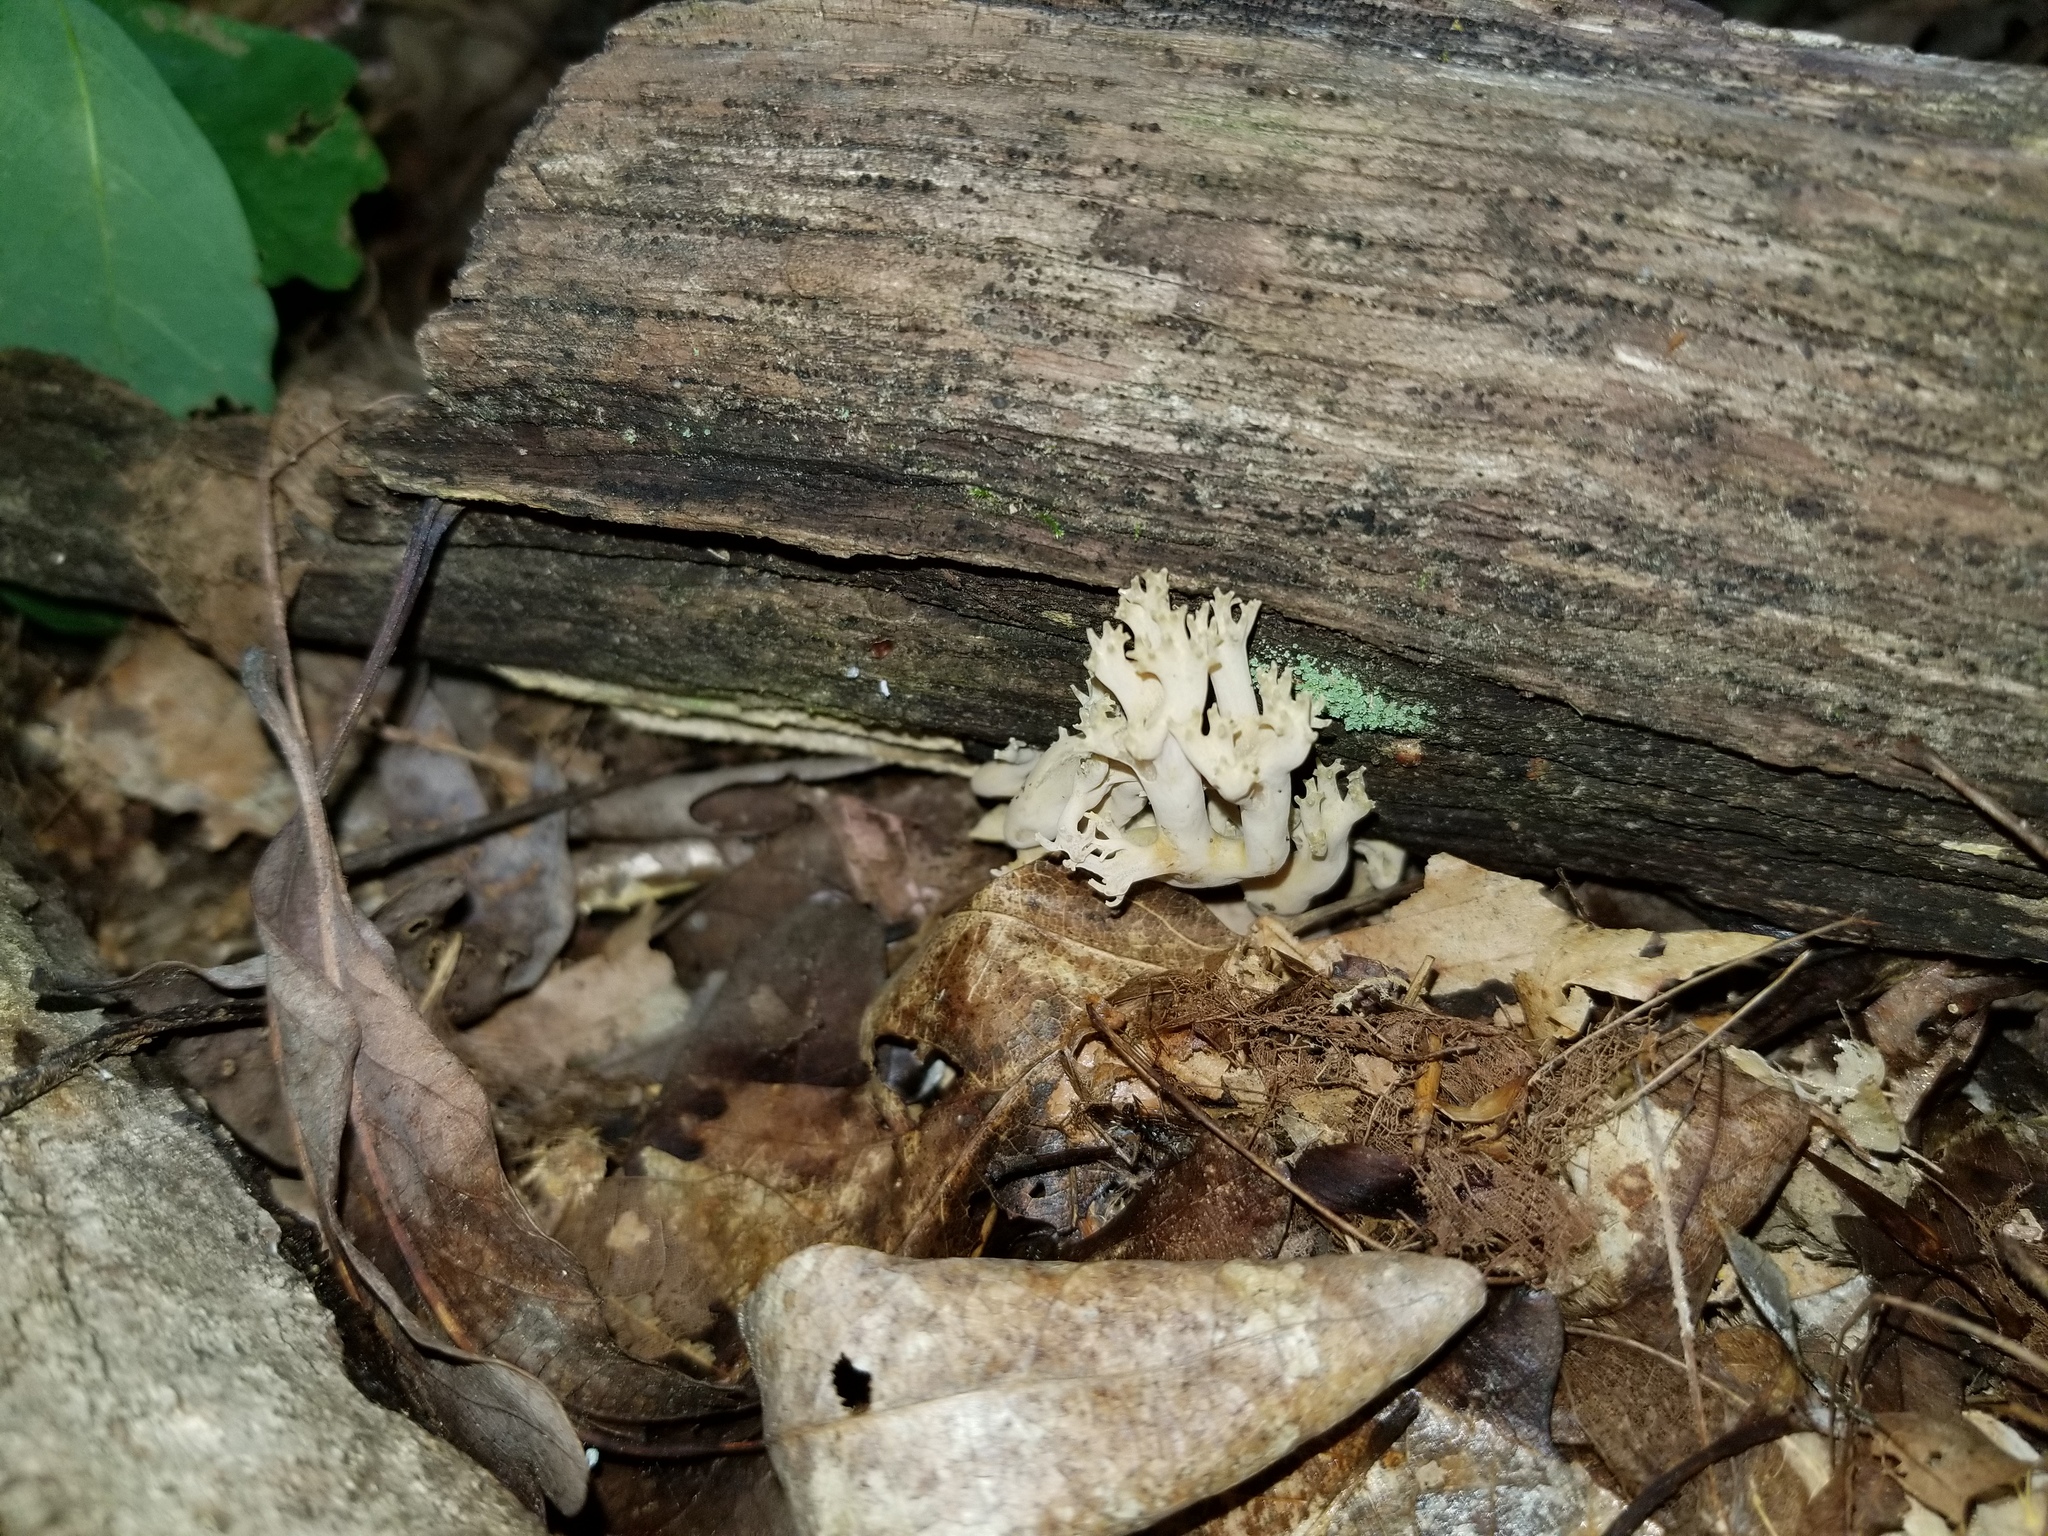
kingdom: Fungi
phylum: Basidiomycota
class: Agaricomycetes
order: Gomphales
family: Gomphaceae
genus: Ramaria
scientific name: Ramaria fennica
